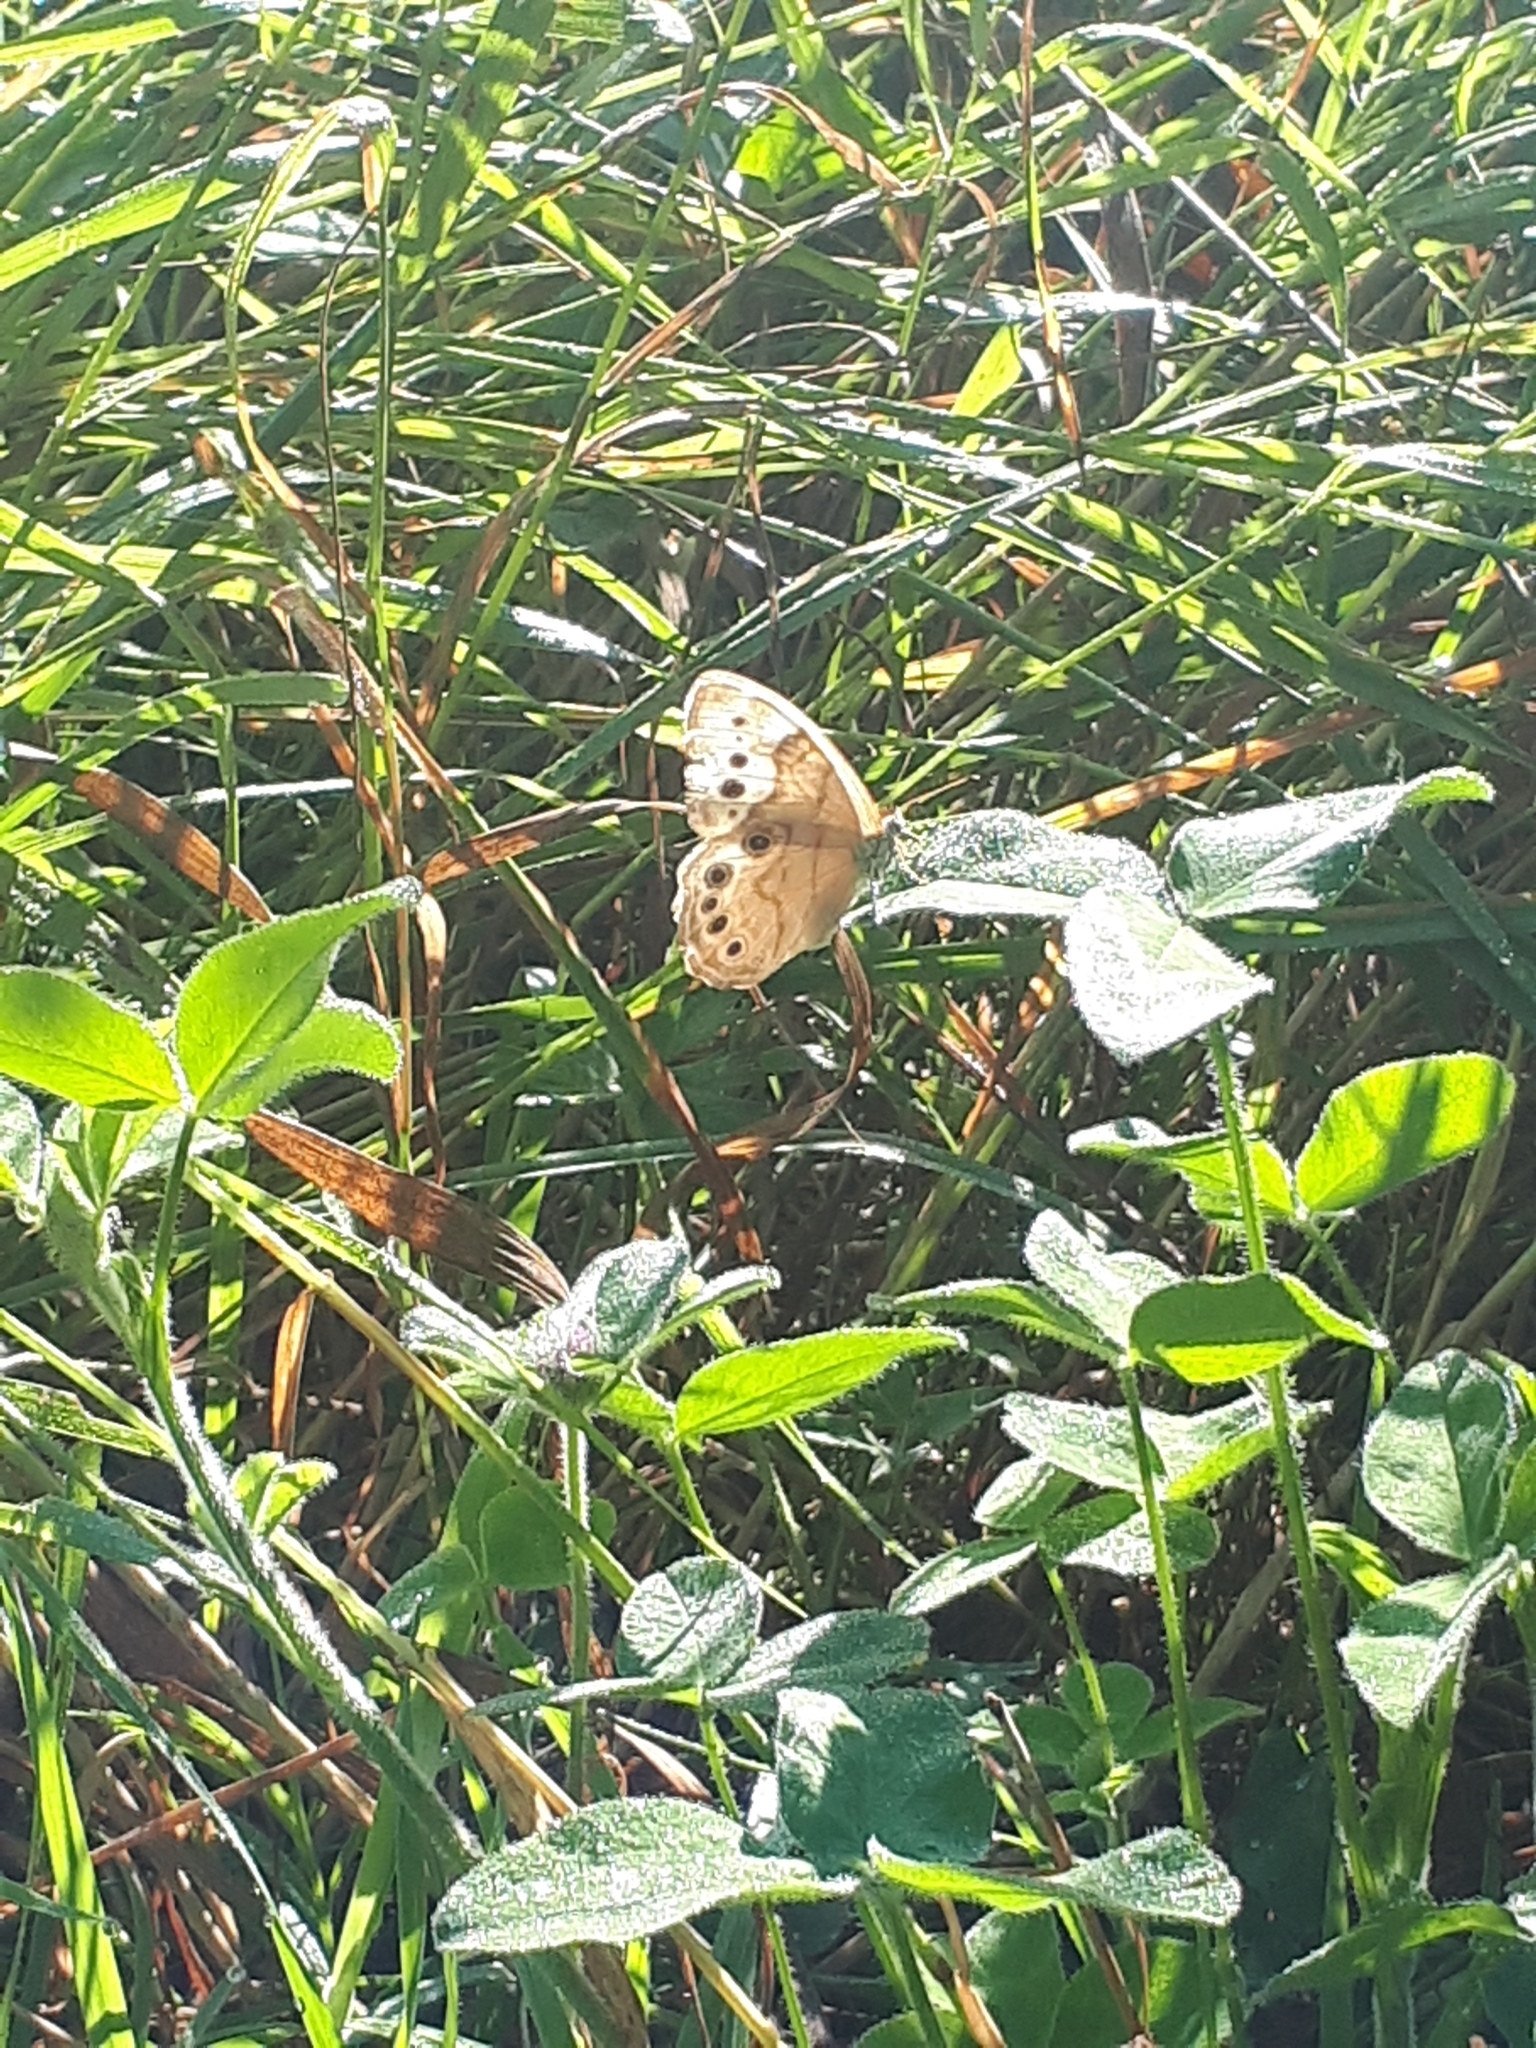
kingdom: Animalia
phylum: Arthropoda
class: Insecta
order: Lepidoptera
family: Nymphalidae
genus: Lethe
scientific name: Lethe anthedon
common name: Northern pearly-eye
